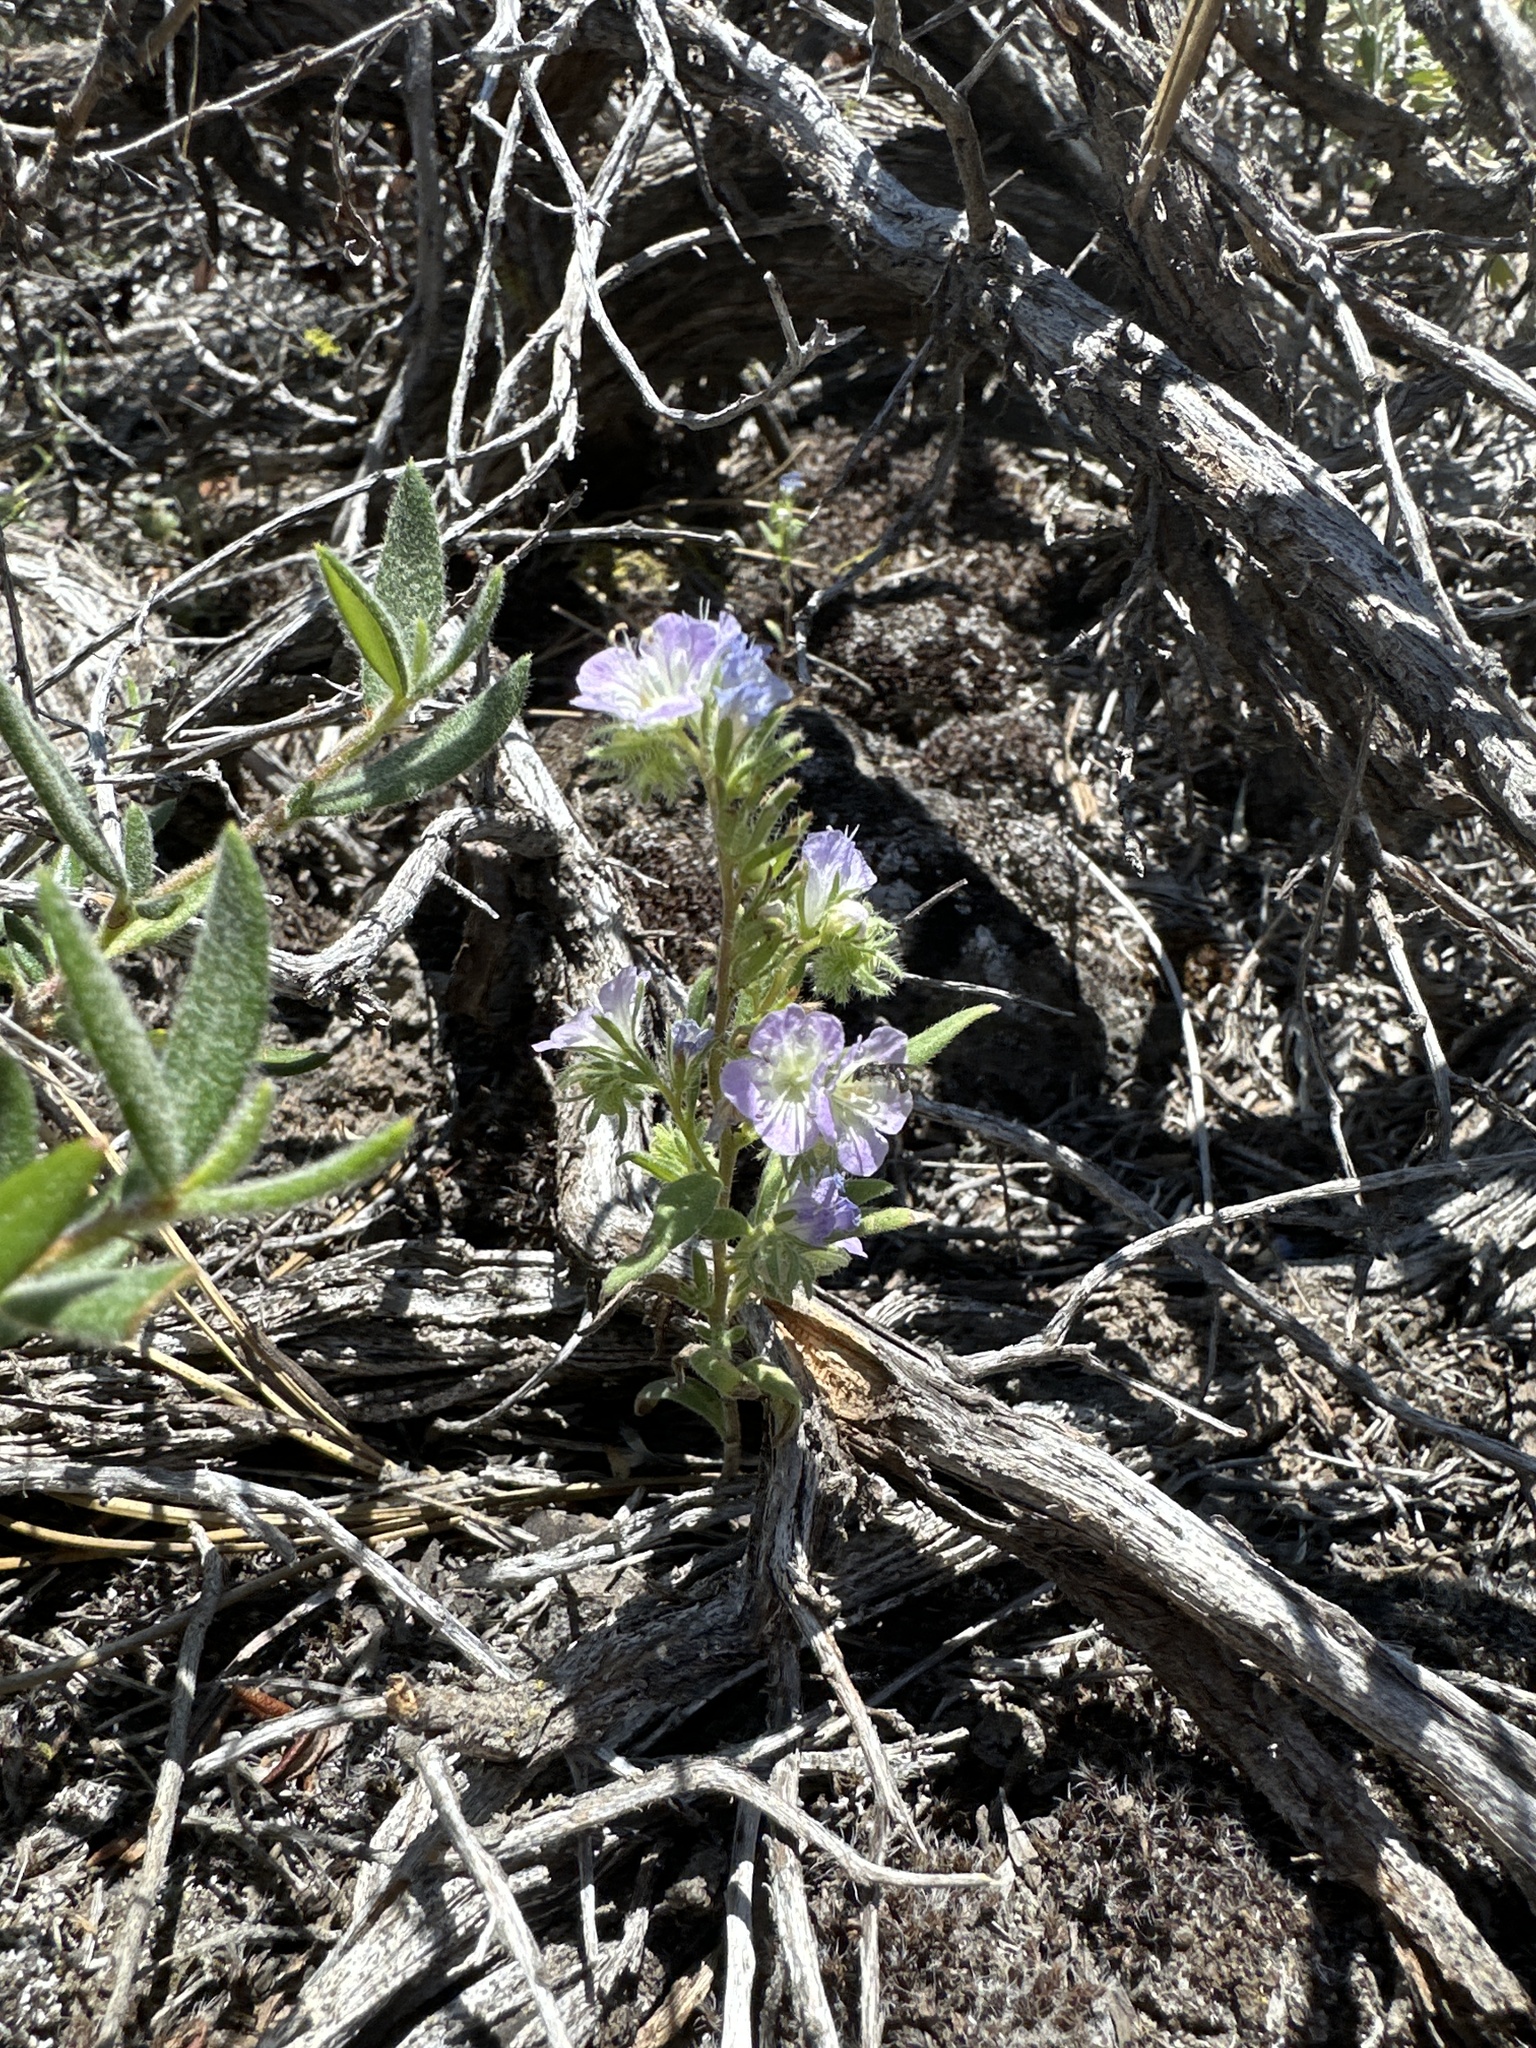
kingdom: Plantae
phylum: Tracheophyta
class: Magnoliopsida
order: Boraginales
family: Hydrophyllaceae
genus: Phacelia
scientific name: Phacelia linearis
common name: Linear-leaved phacelia
